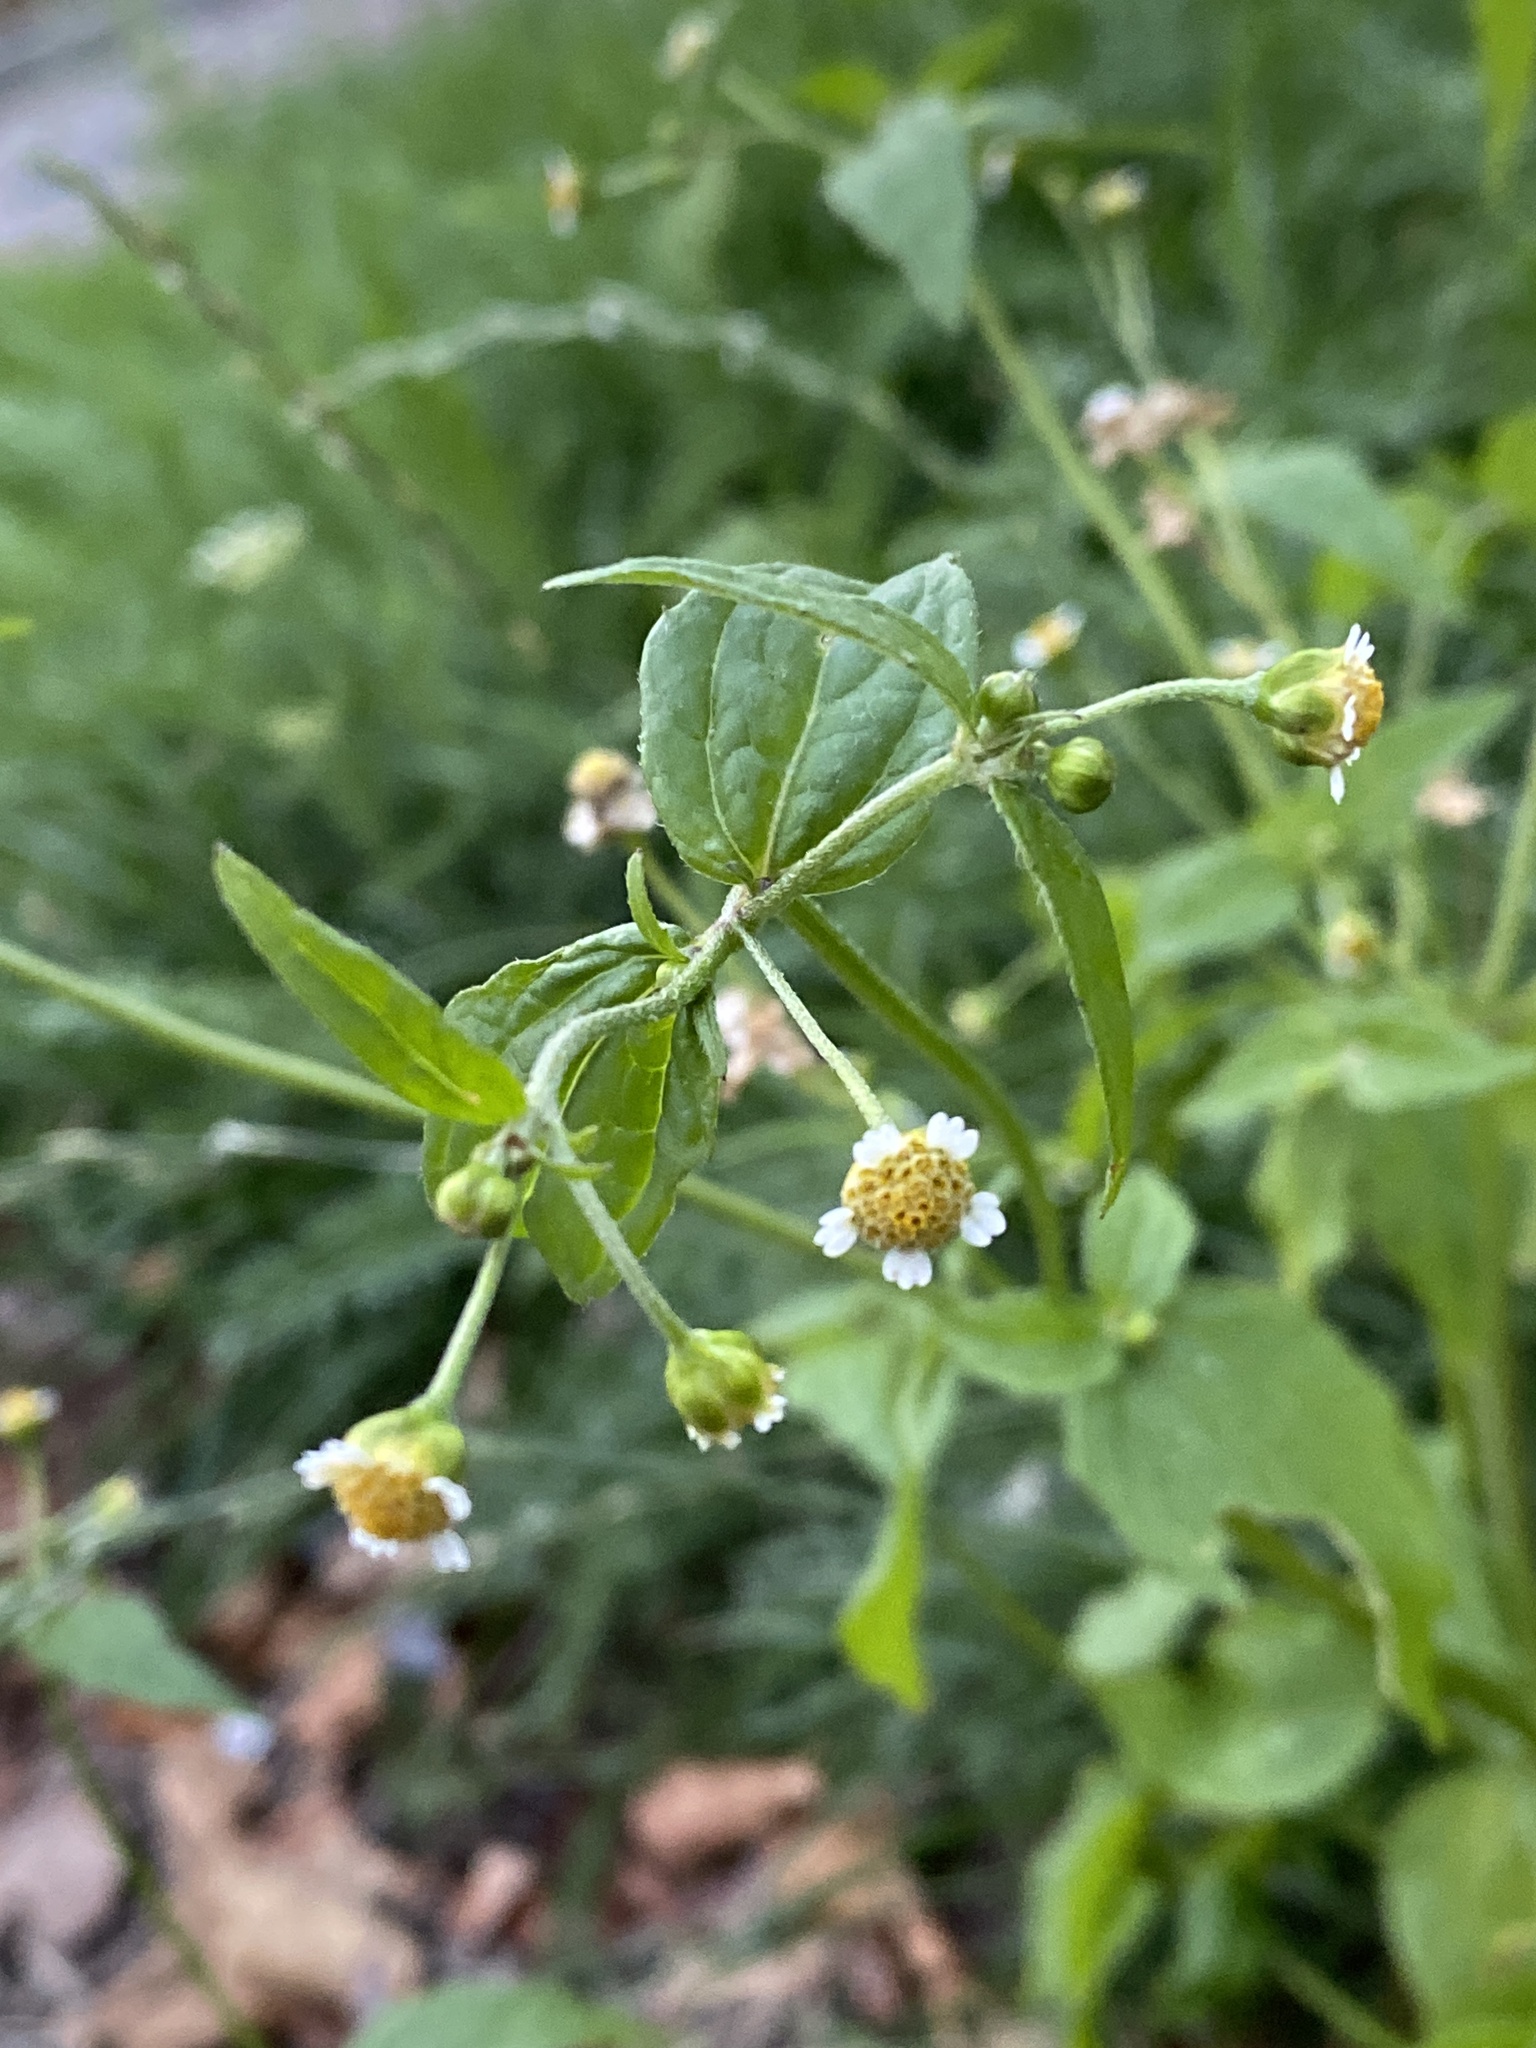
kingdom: Plantae
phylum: Tracheophyta
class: Magnoliopsida
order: Asterales
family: Asteraceae
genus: Galinsoga
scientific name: Galinsoga parviflora
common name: Gallant soldier
